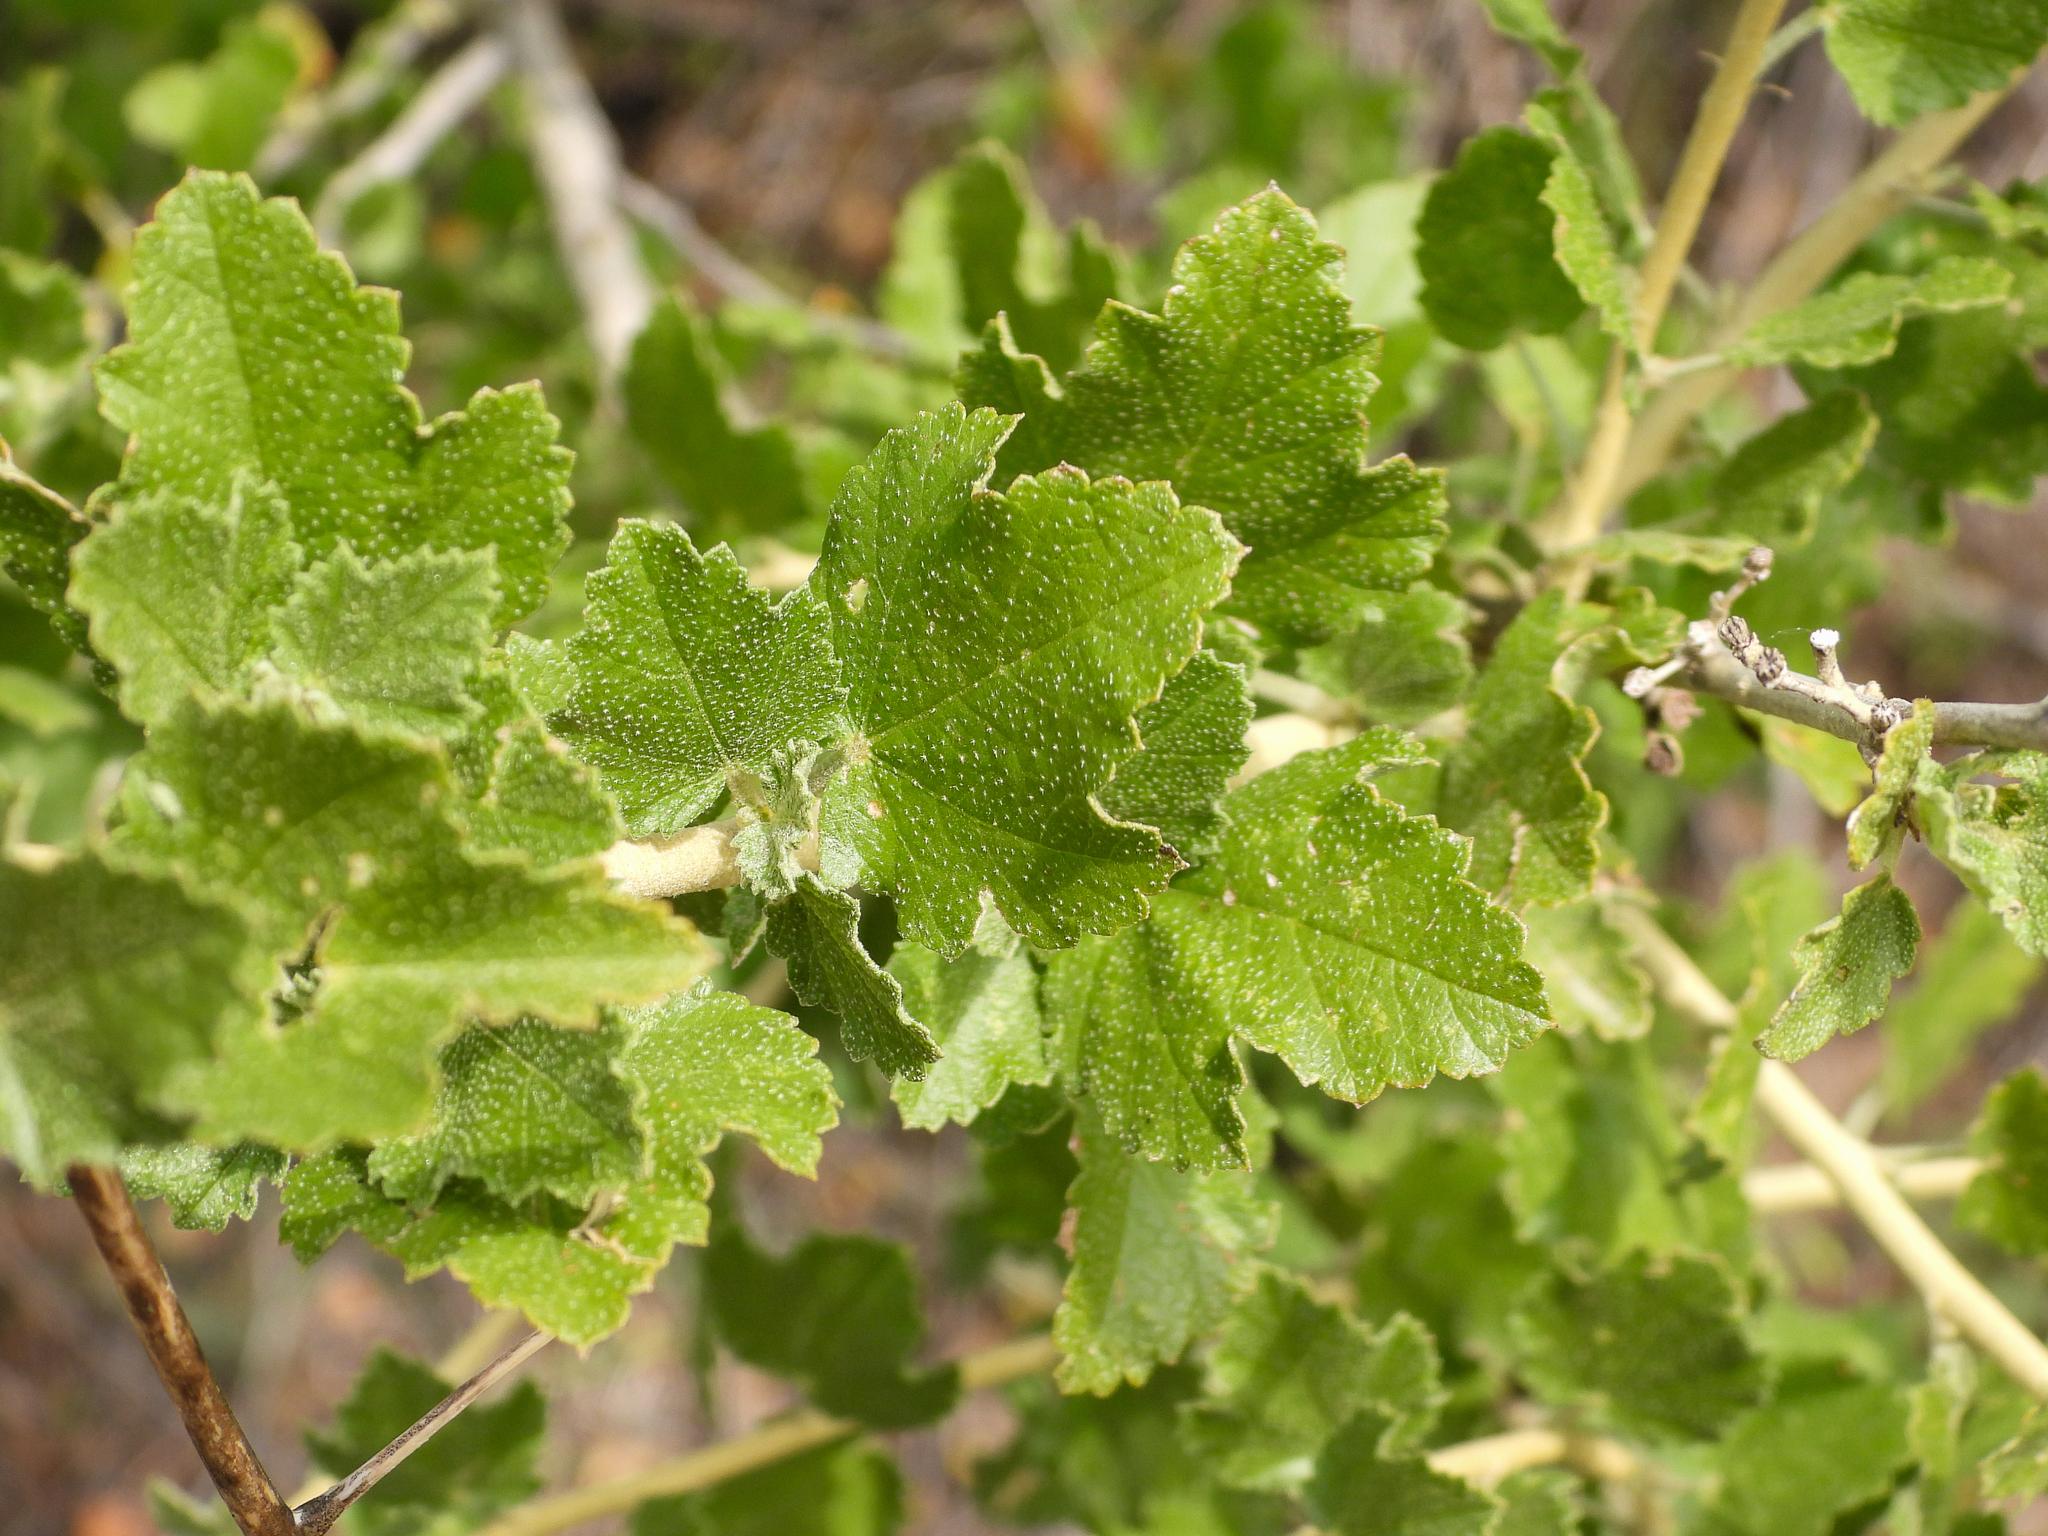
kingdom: Plantae
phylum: Tracheophyta
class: Magnoliopsida
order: Malvales
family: Malvaceae
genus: Malacothamnus
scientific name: Malacothamnus fasciculatus
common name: Sant cruz island bush-mallow
